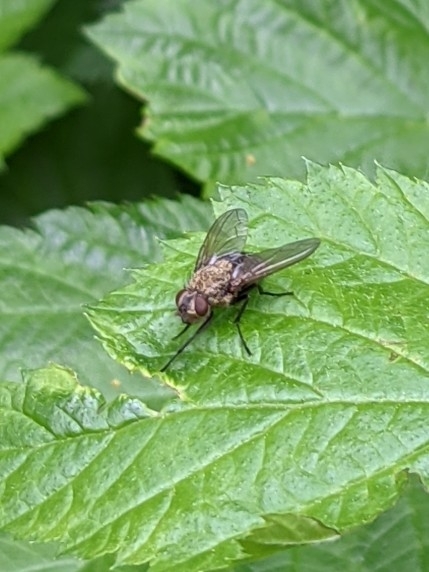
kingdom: Animalia
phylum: Arthropoda
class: Insecta
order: Diptera
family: Polleniidae
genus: Pollenia
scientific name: Pollenia
